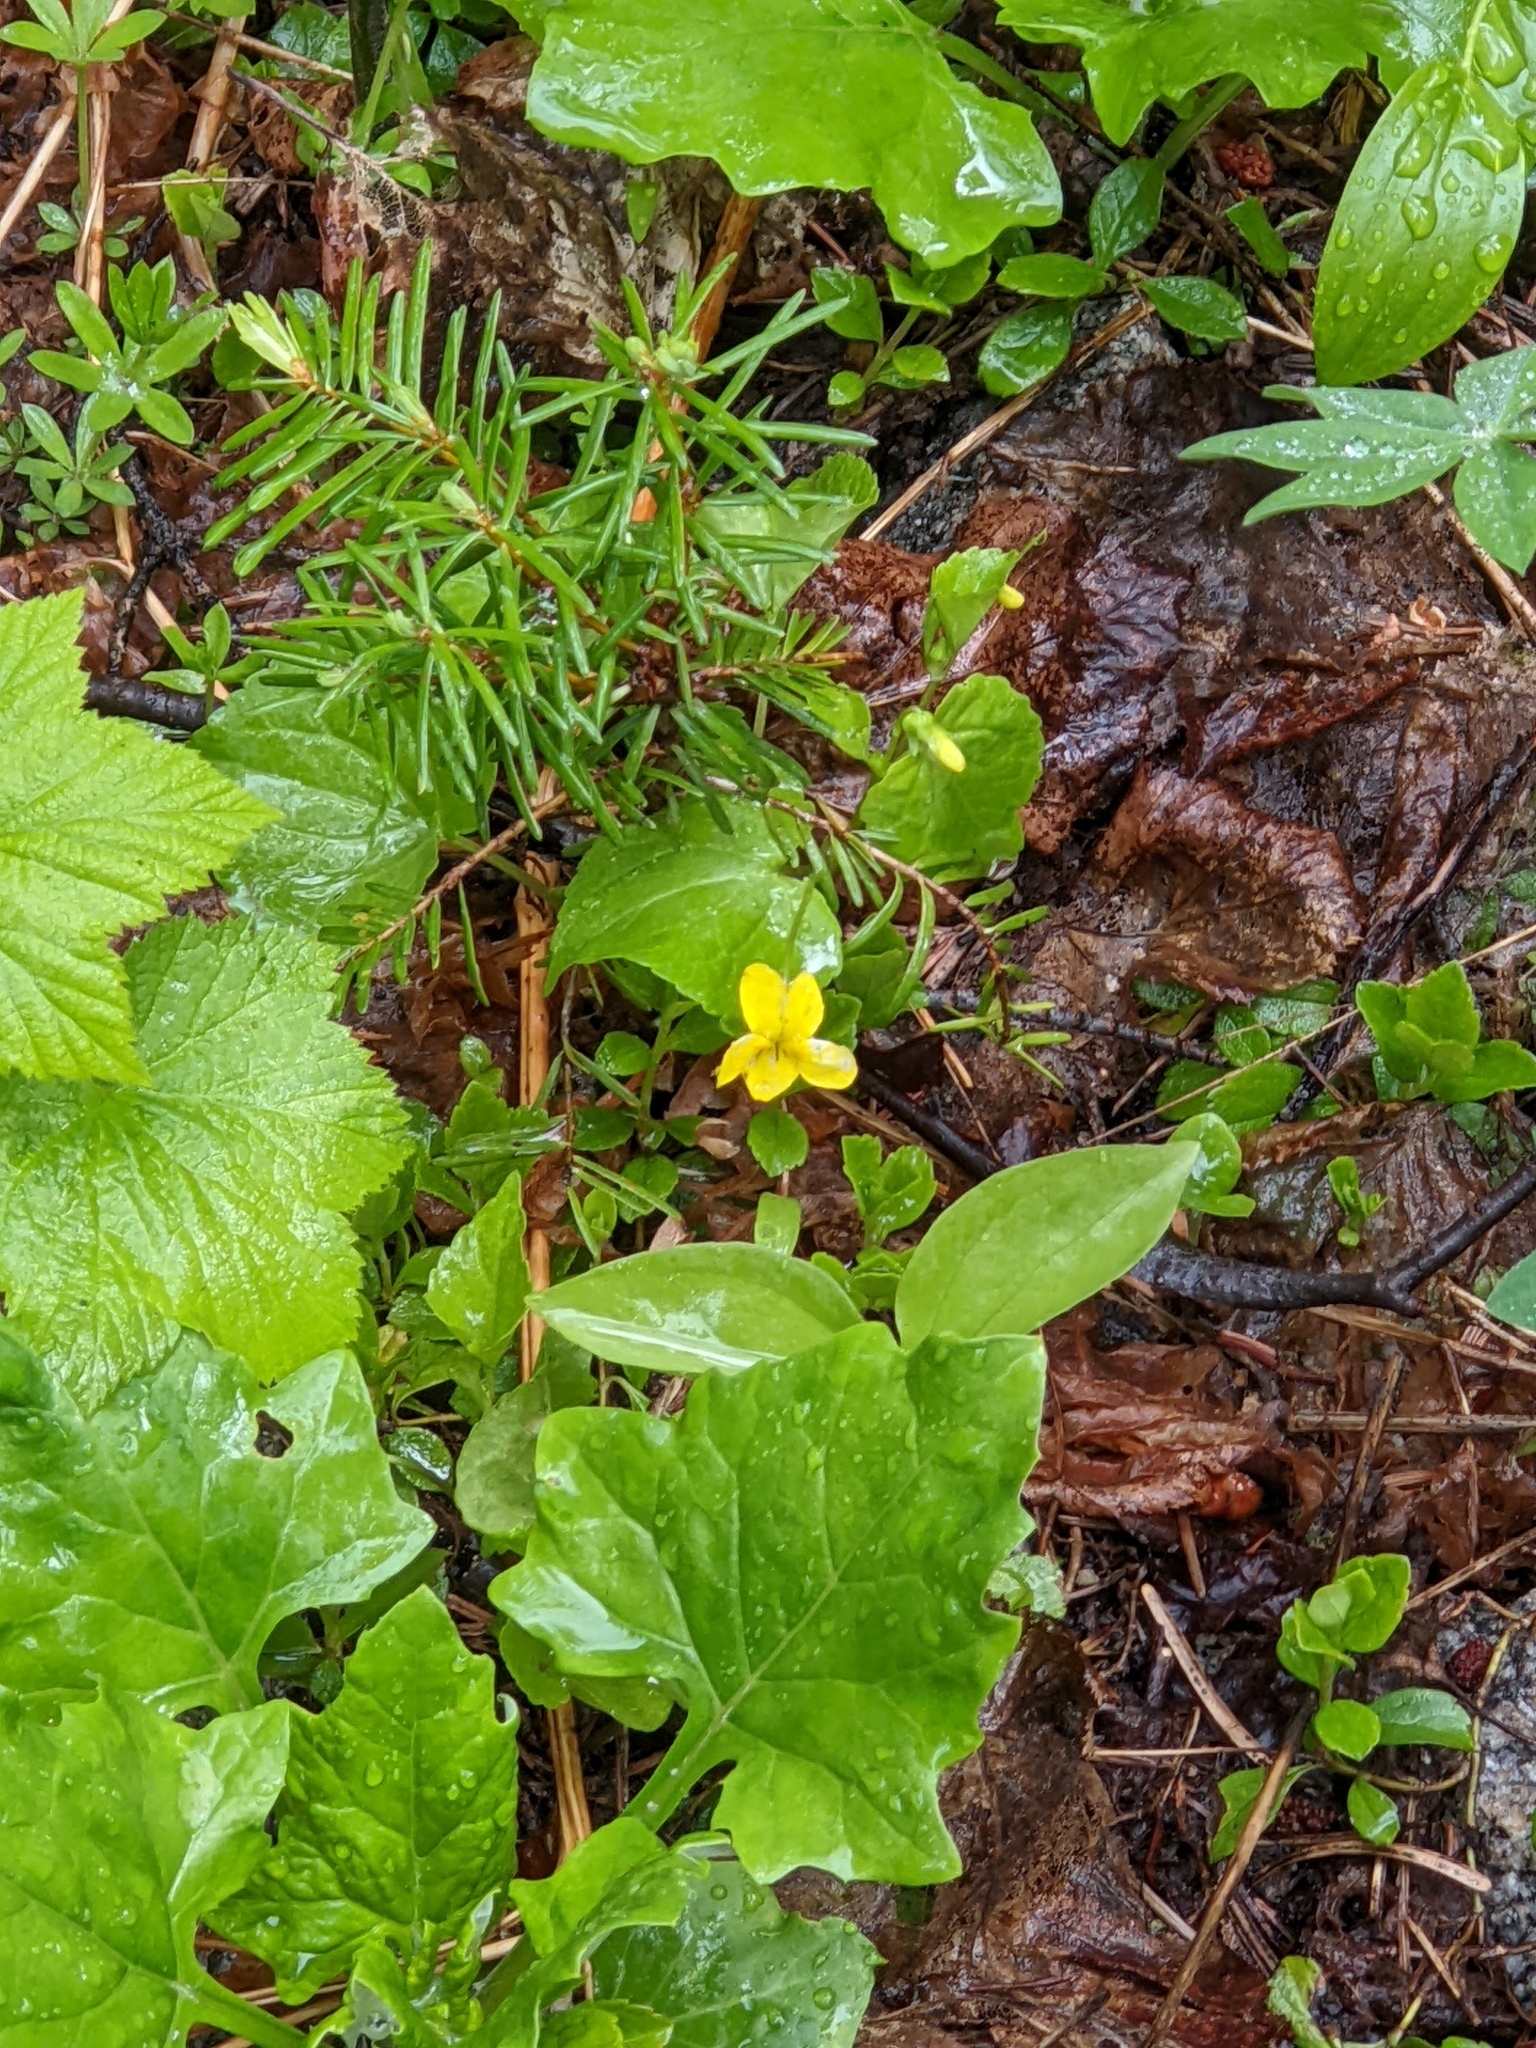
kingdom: Plantae
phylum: Tracheophyta
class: Magnoliopsida
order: Malpighiales
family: Violaceae
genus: Viola
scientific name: Viola glabella
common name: Stream violet
